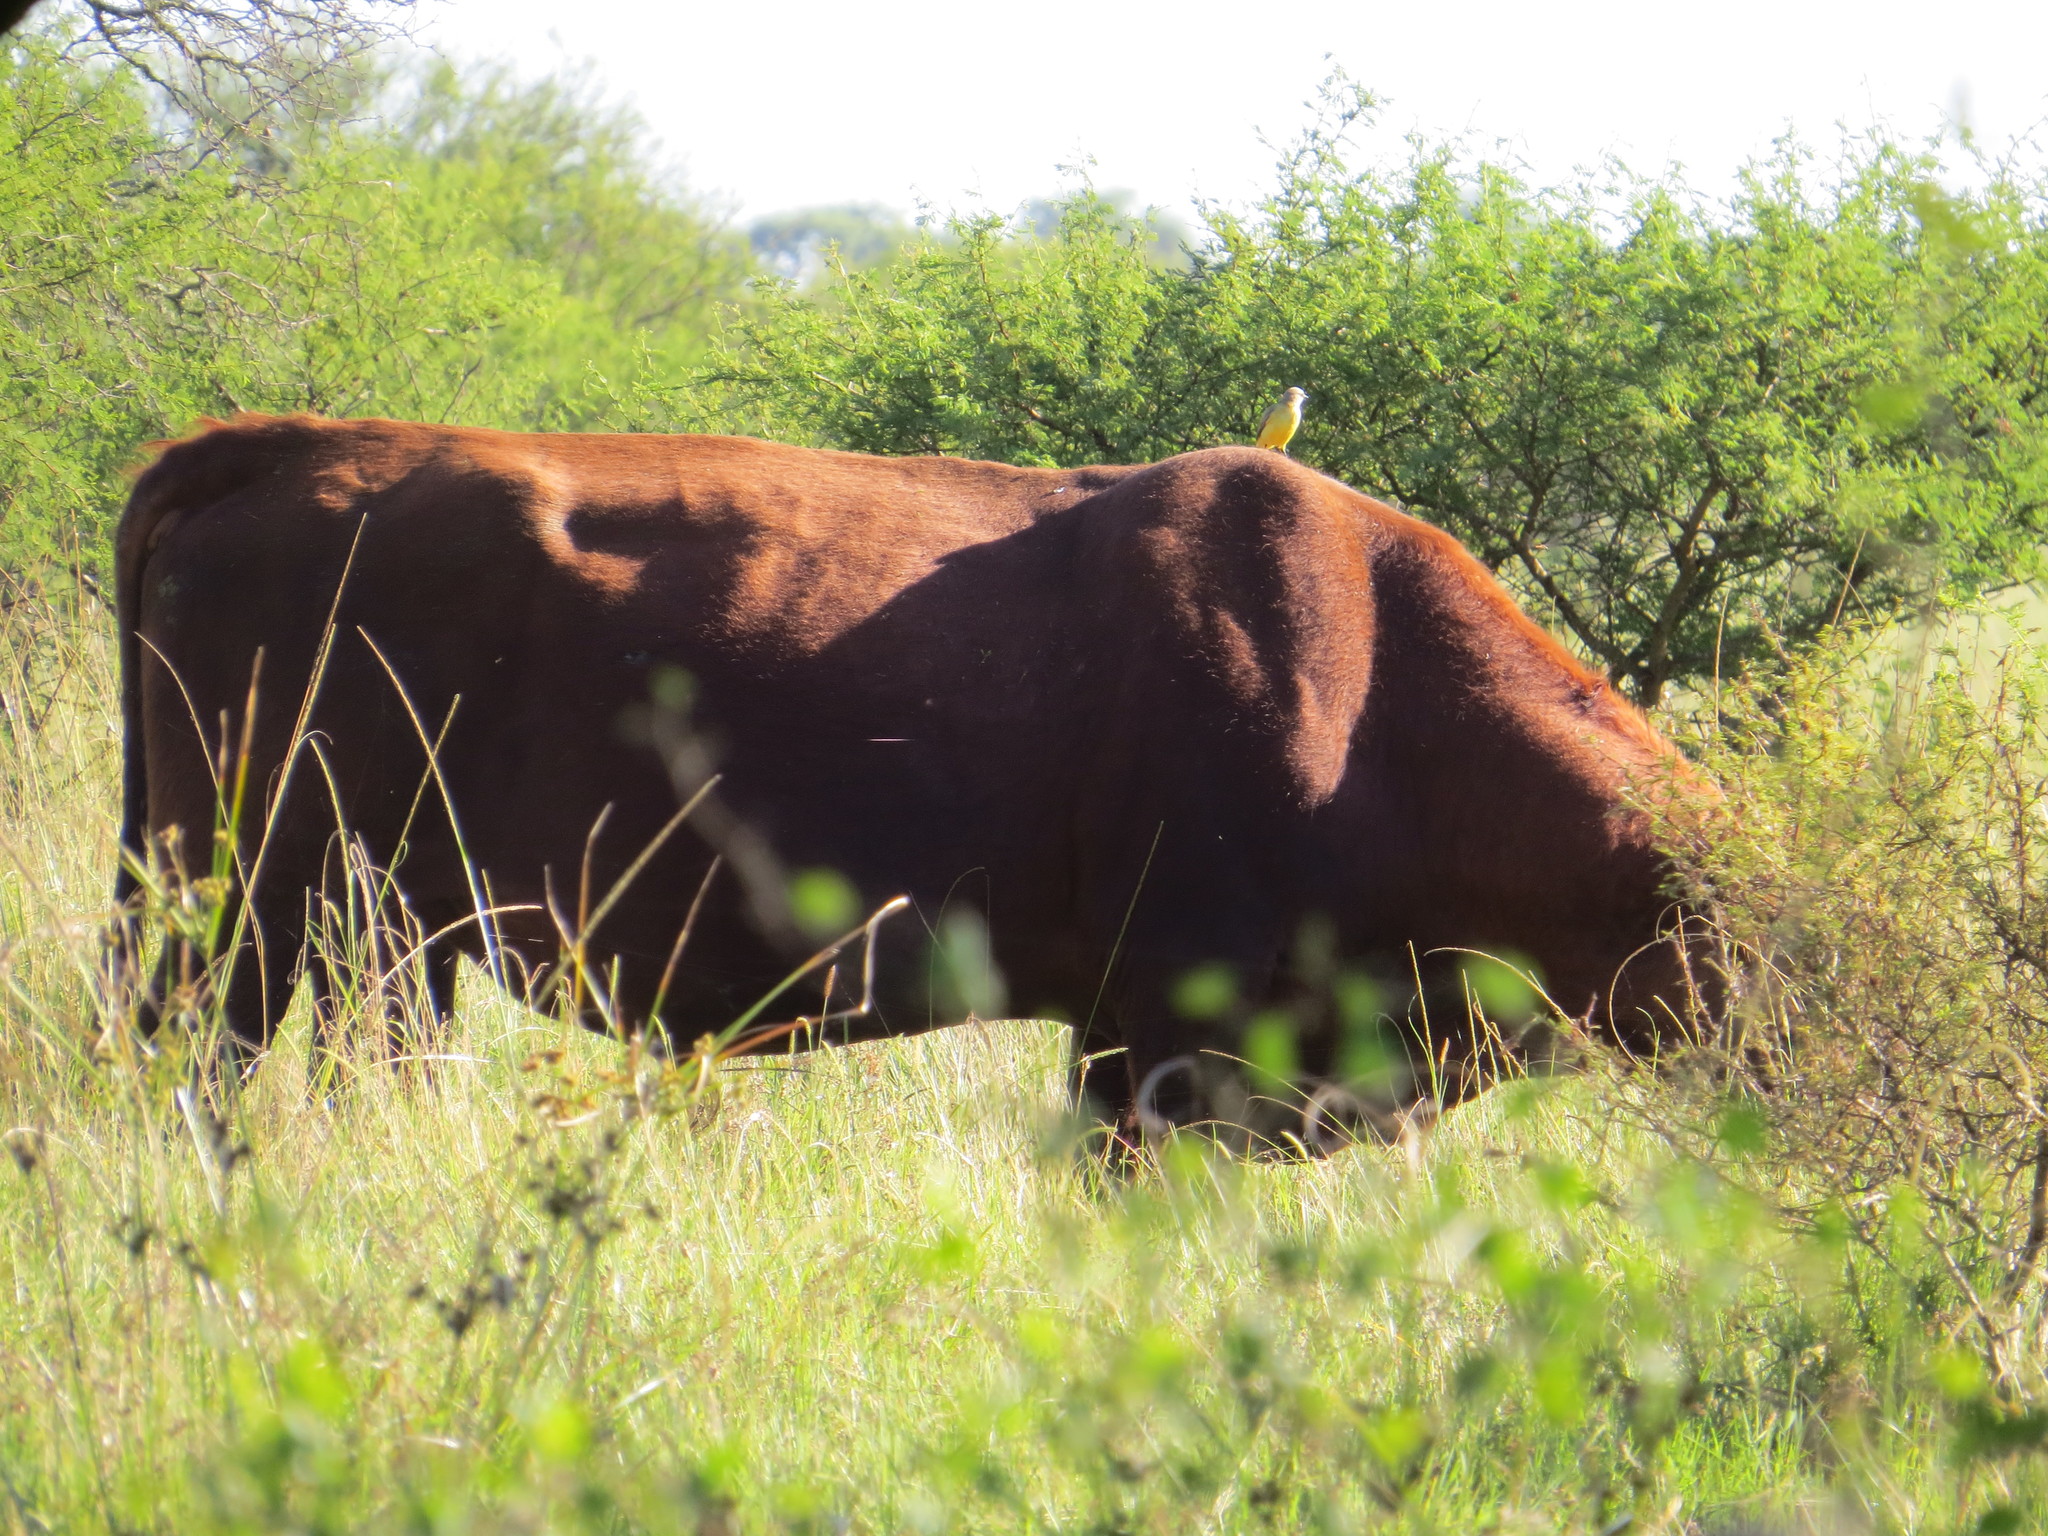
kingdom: Animalia
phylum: Chordata
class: Aves
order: Passeriformes
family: Tyrannidae
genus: Machetornis
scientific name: Machetornis rixosa
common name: Cattle tyrant
